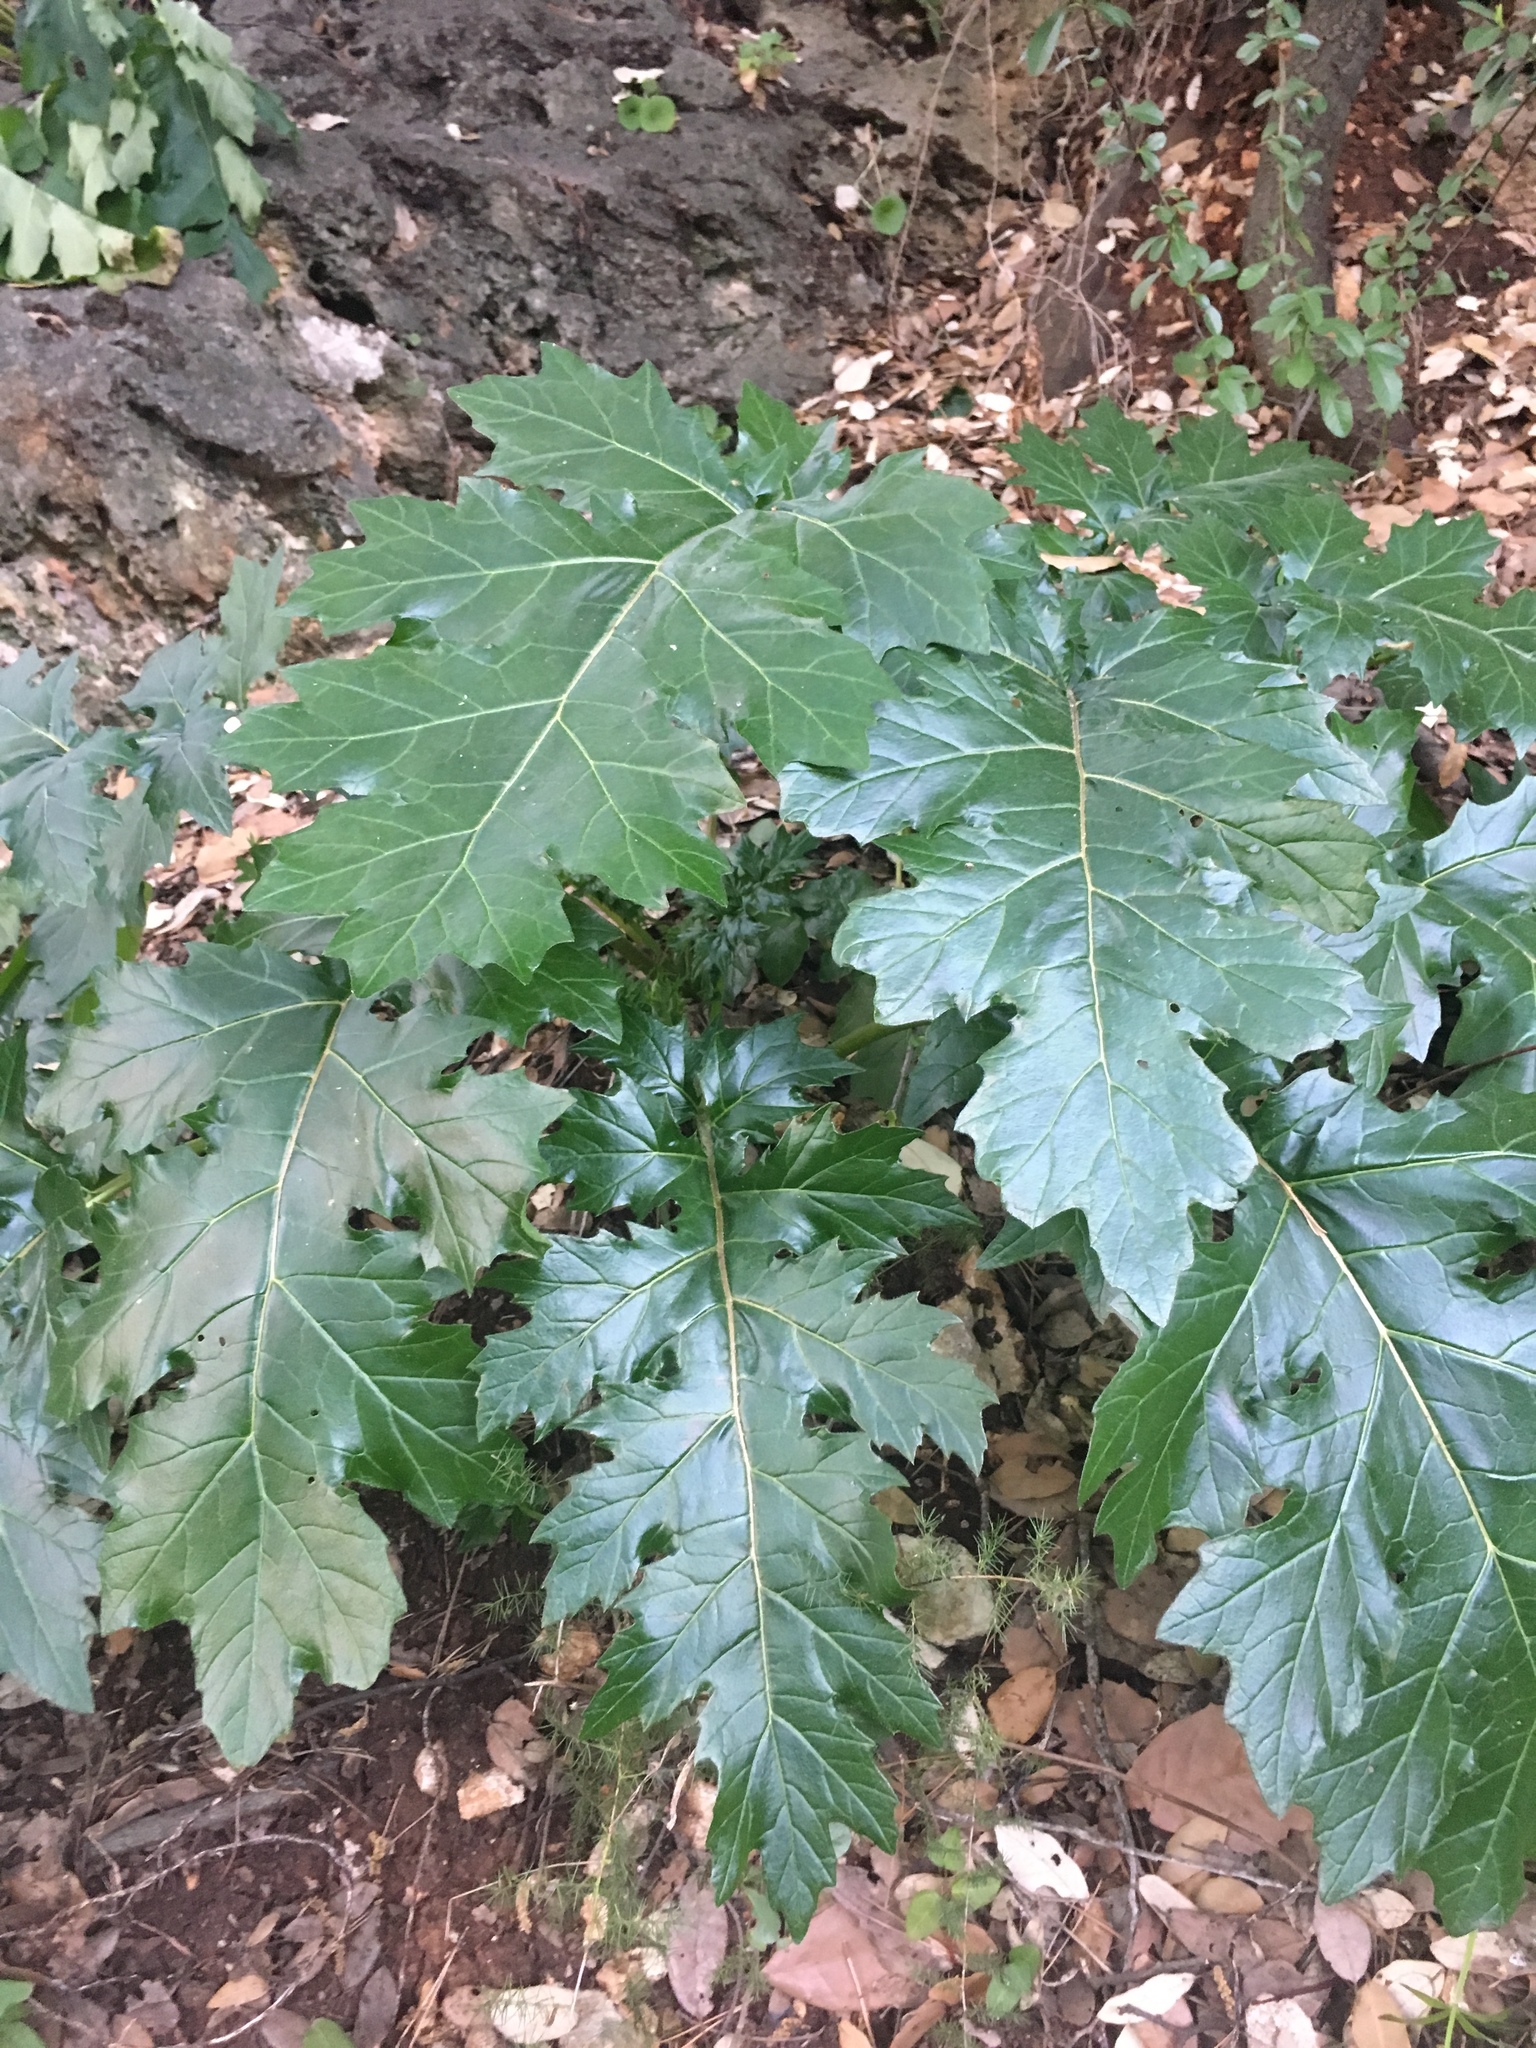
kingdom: Plantae
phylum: Tracheophyta
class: Magnoliopsida
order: Lamiales
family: Acanthaceae
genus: Acanthus
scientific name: Acanthus mollis
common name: Bear's-breech
